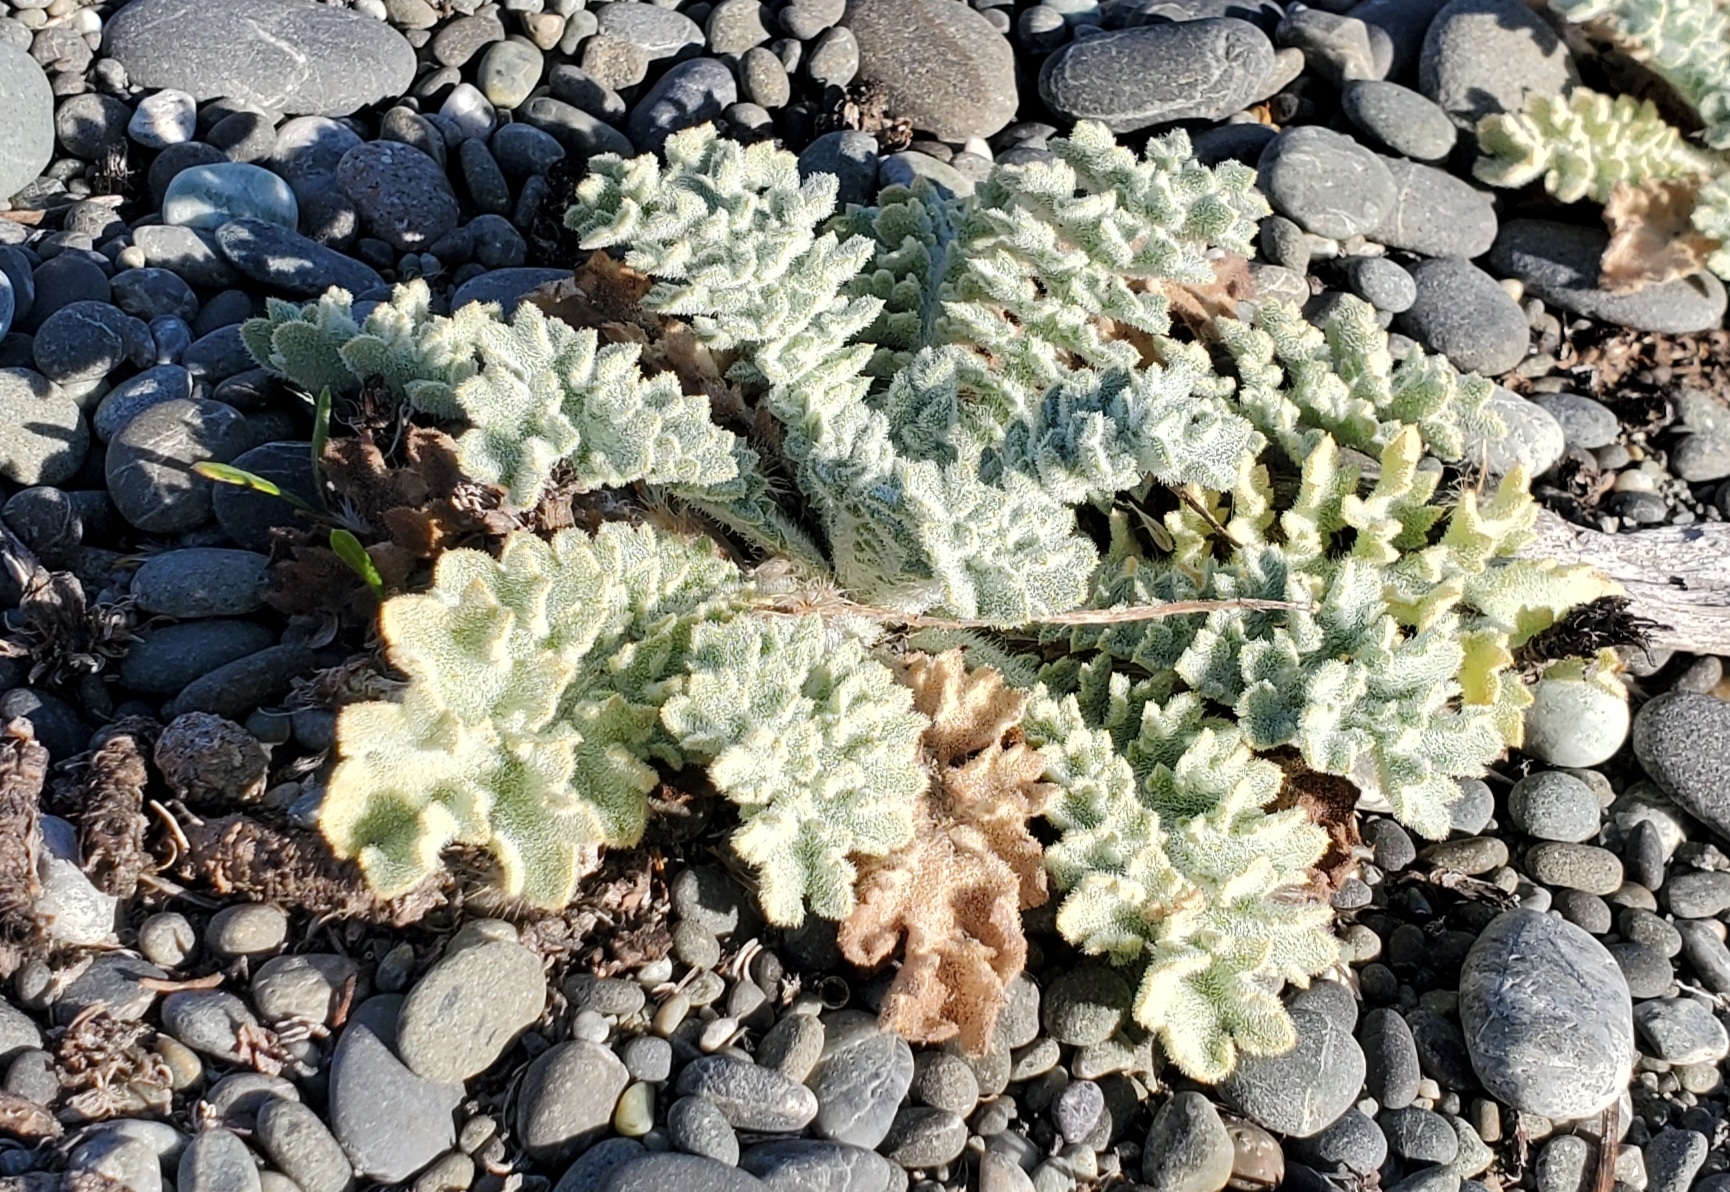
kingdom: Plantae
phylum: Tracheophyta
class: Magnoliopsida
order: Ranunculales
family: Papaveraceae
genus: Glaucium
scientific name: Glaucium flavum
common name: Yellow horned-poppy
